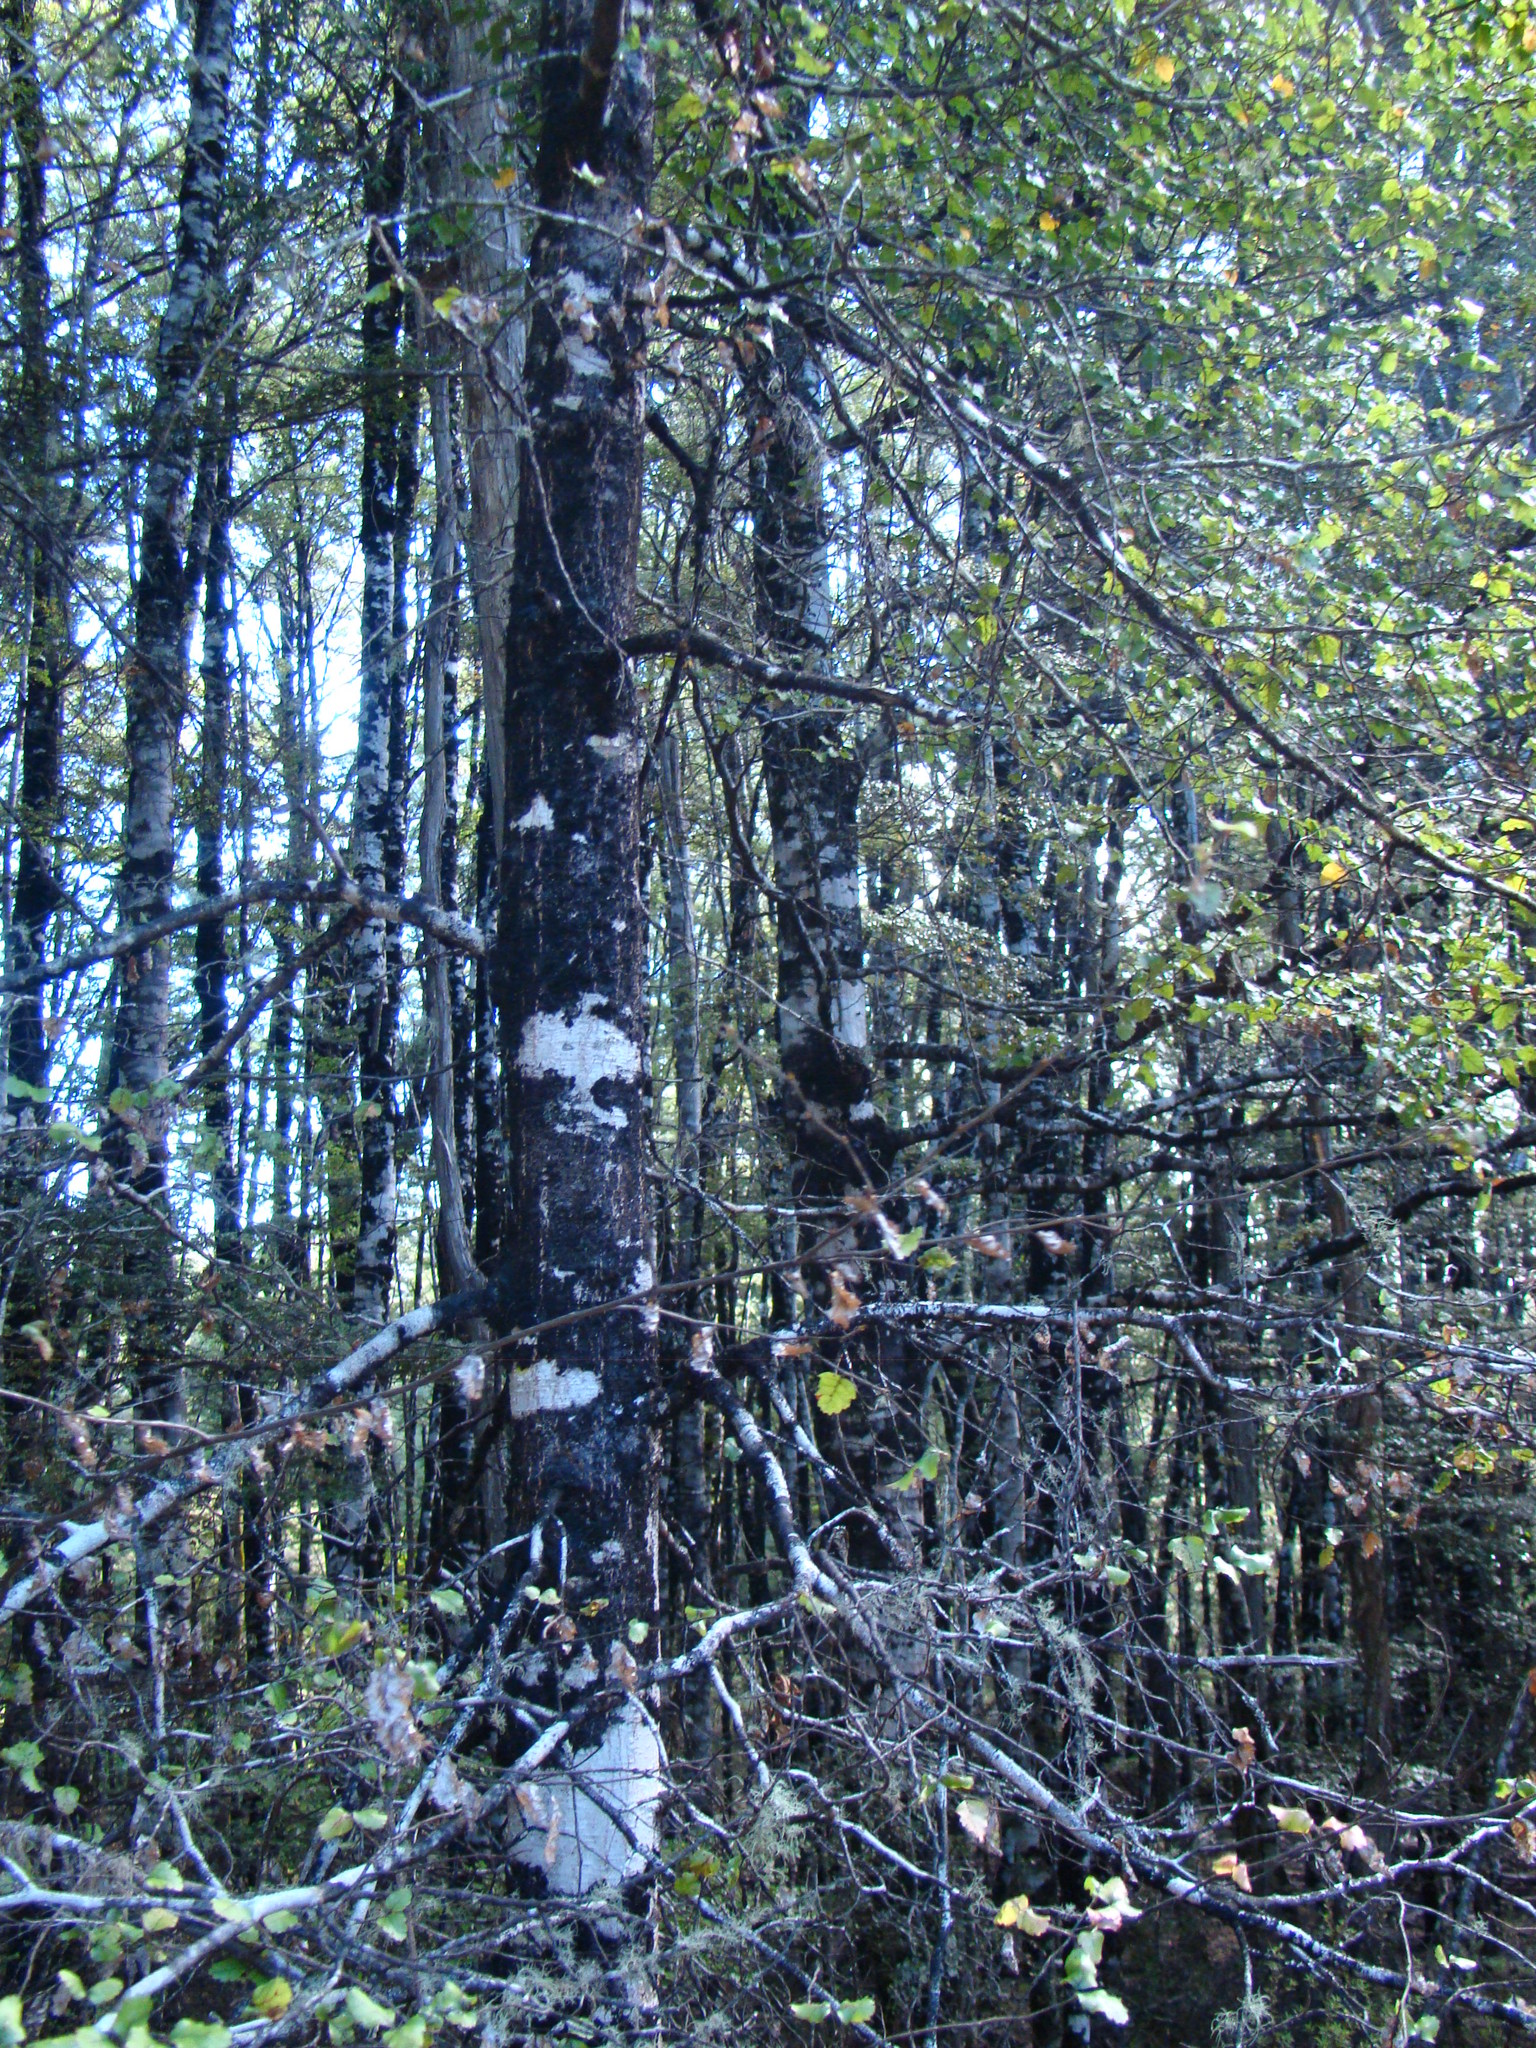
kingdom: Plantae
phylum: Tracheophyta
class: Magnoliopsida
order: Fagales
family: Nothofagaceae
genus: Nothofagus
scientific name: Nothofagus fusca
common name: Red beech
